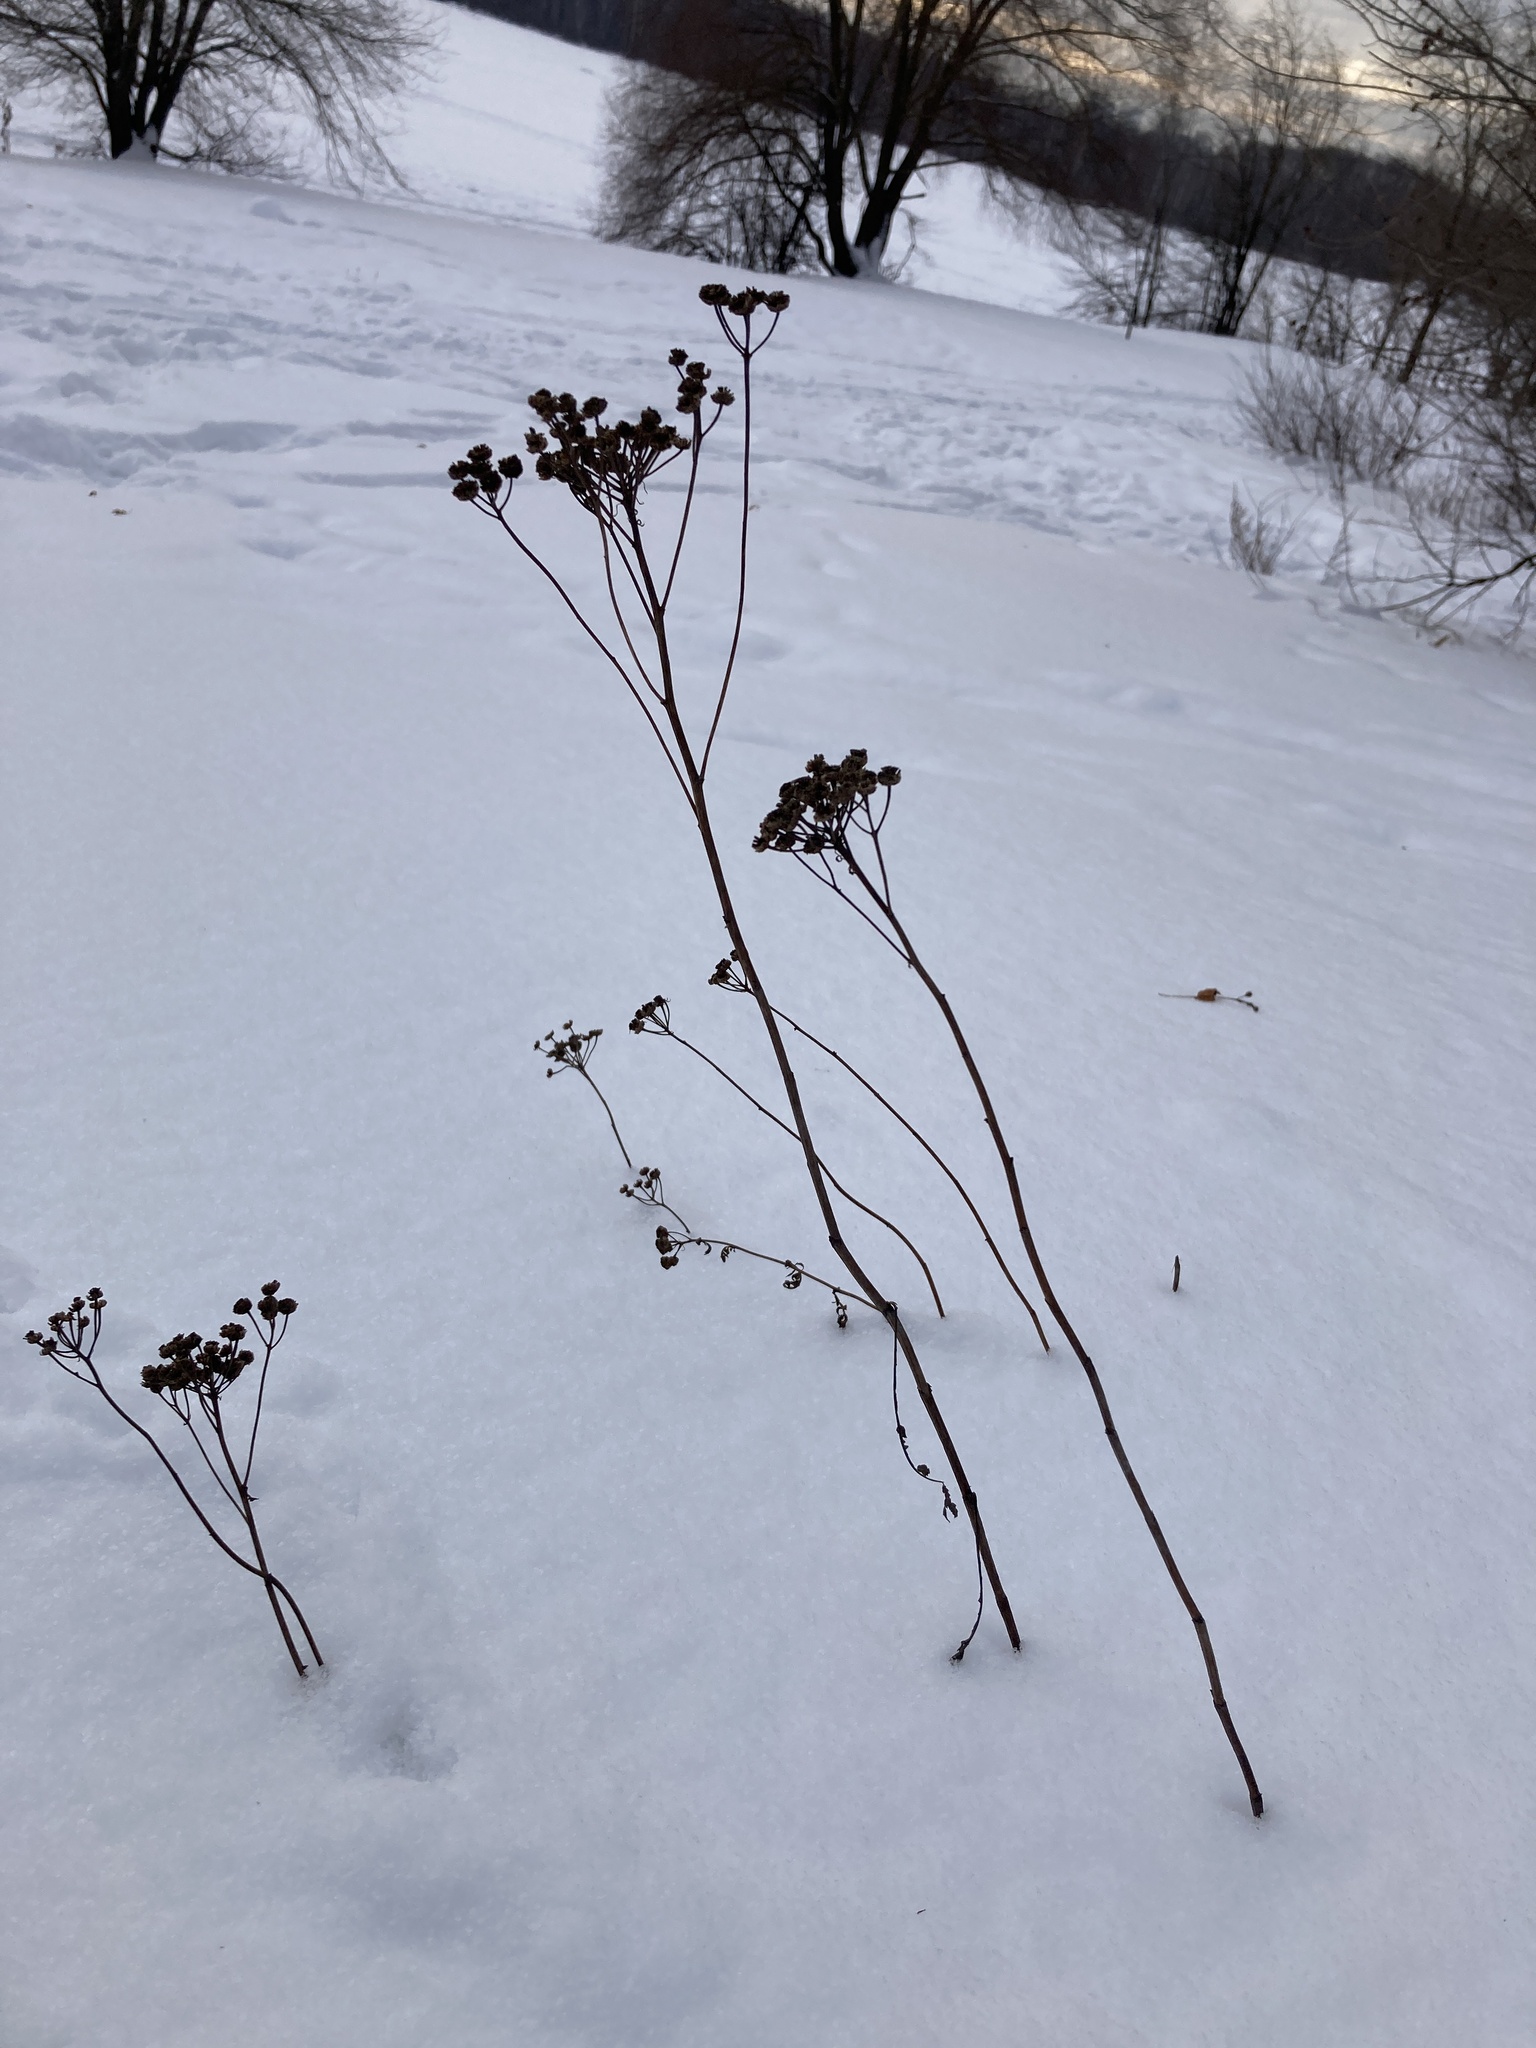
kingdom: Plantae
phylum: Tracheophyta
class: Magnoliopsida
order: Asterales
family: Asteraceae
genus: Tanacetum
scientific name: Tanacetum vulgare
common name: Common tansy
